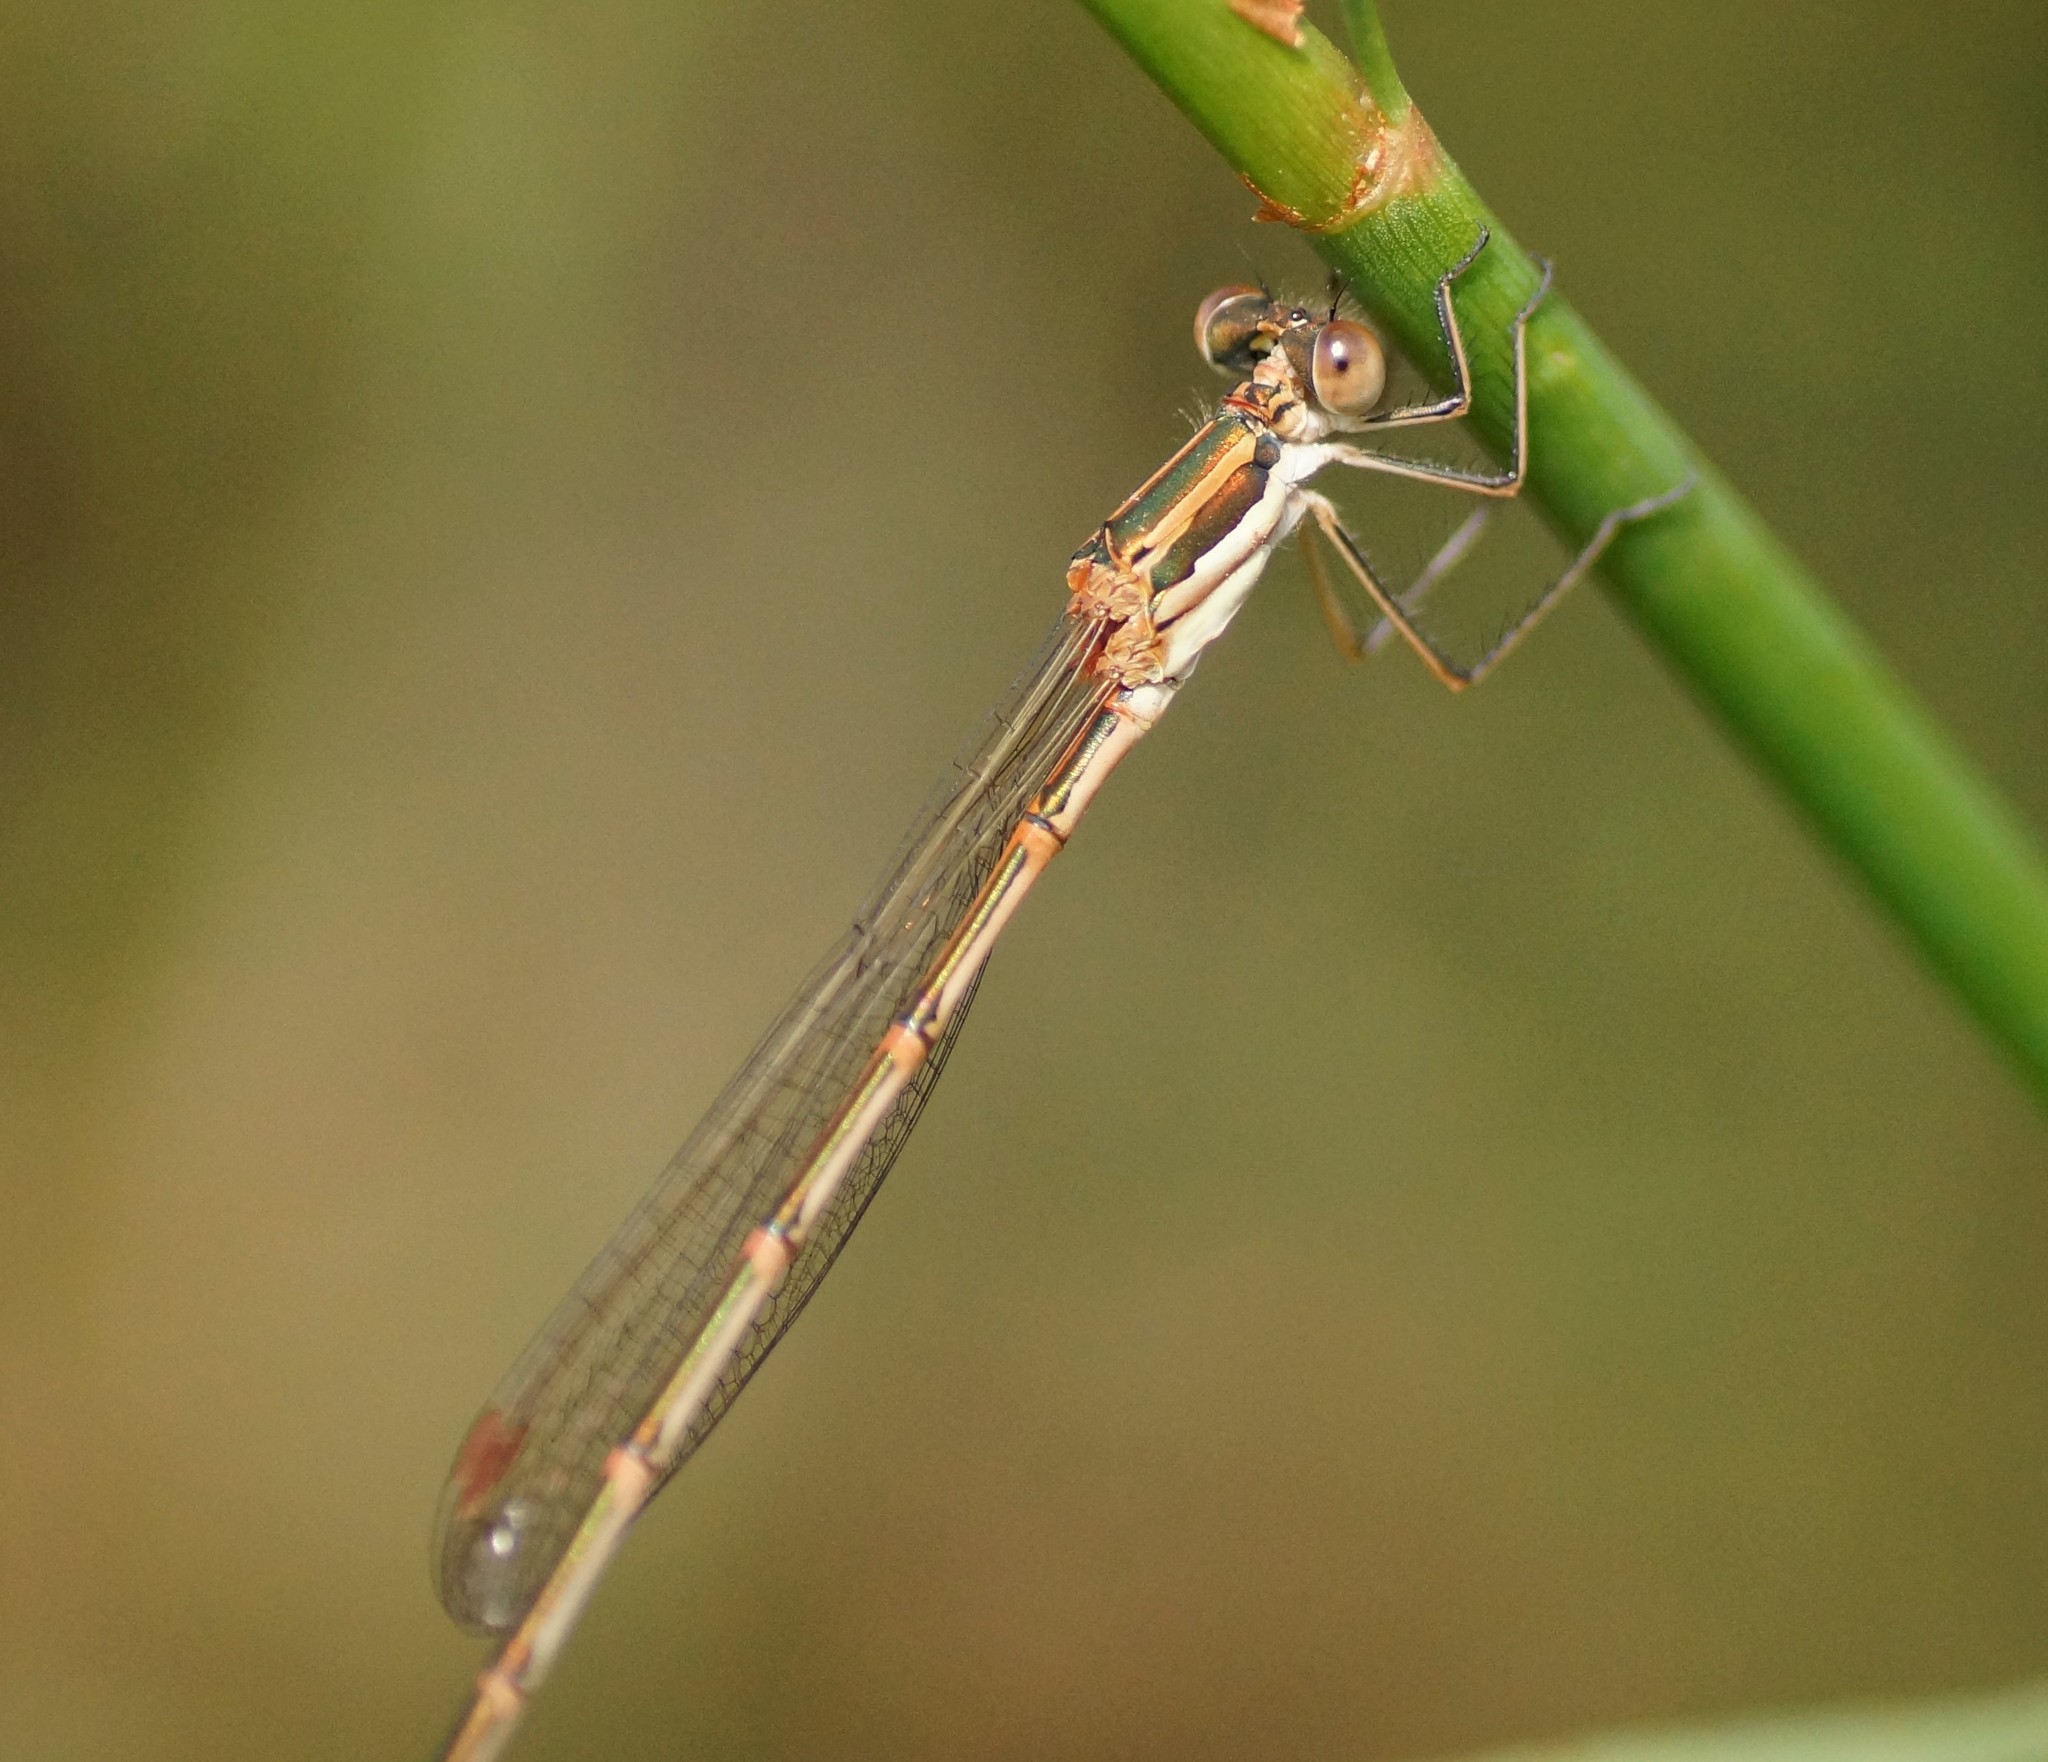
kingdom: Animalia
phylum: Arthropoda
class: Insecta
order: Odonata
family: Lestidae
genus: Austrolestes
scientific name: Austrolestes analis
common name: Slender ringtail
